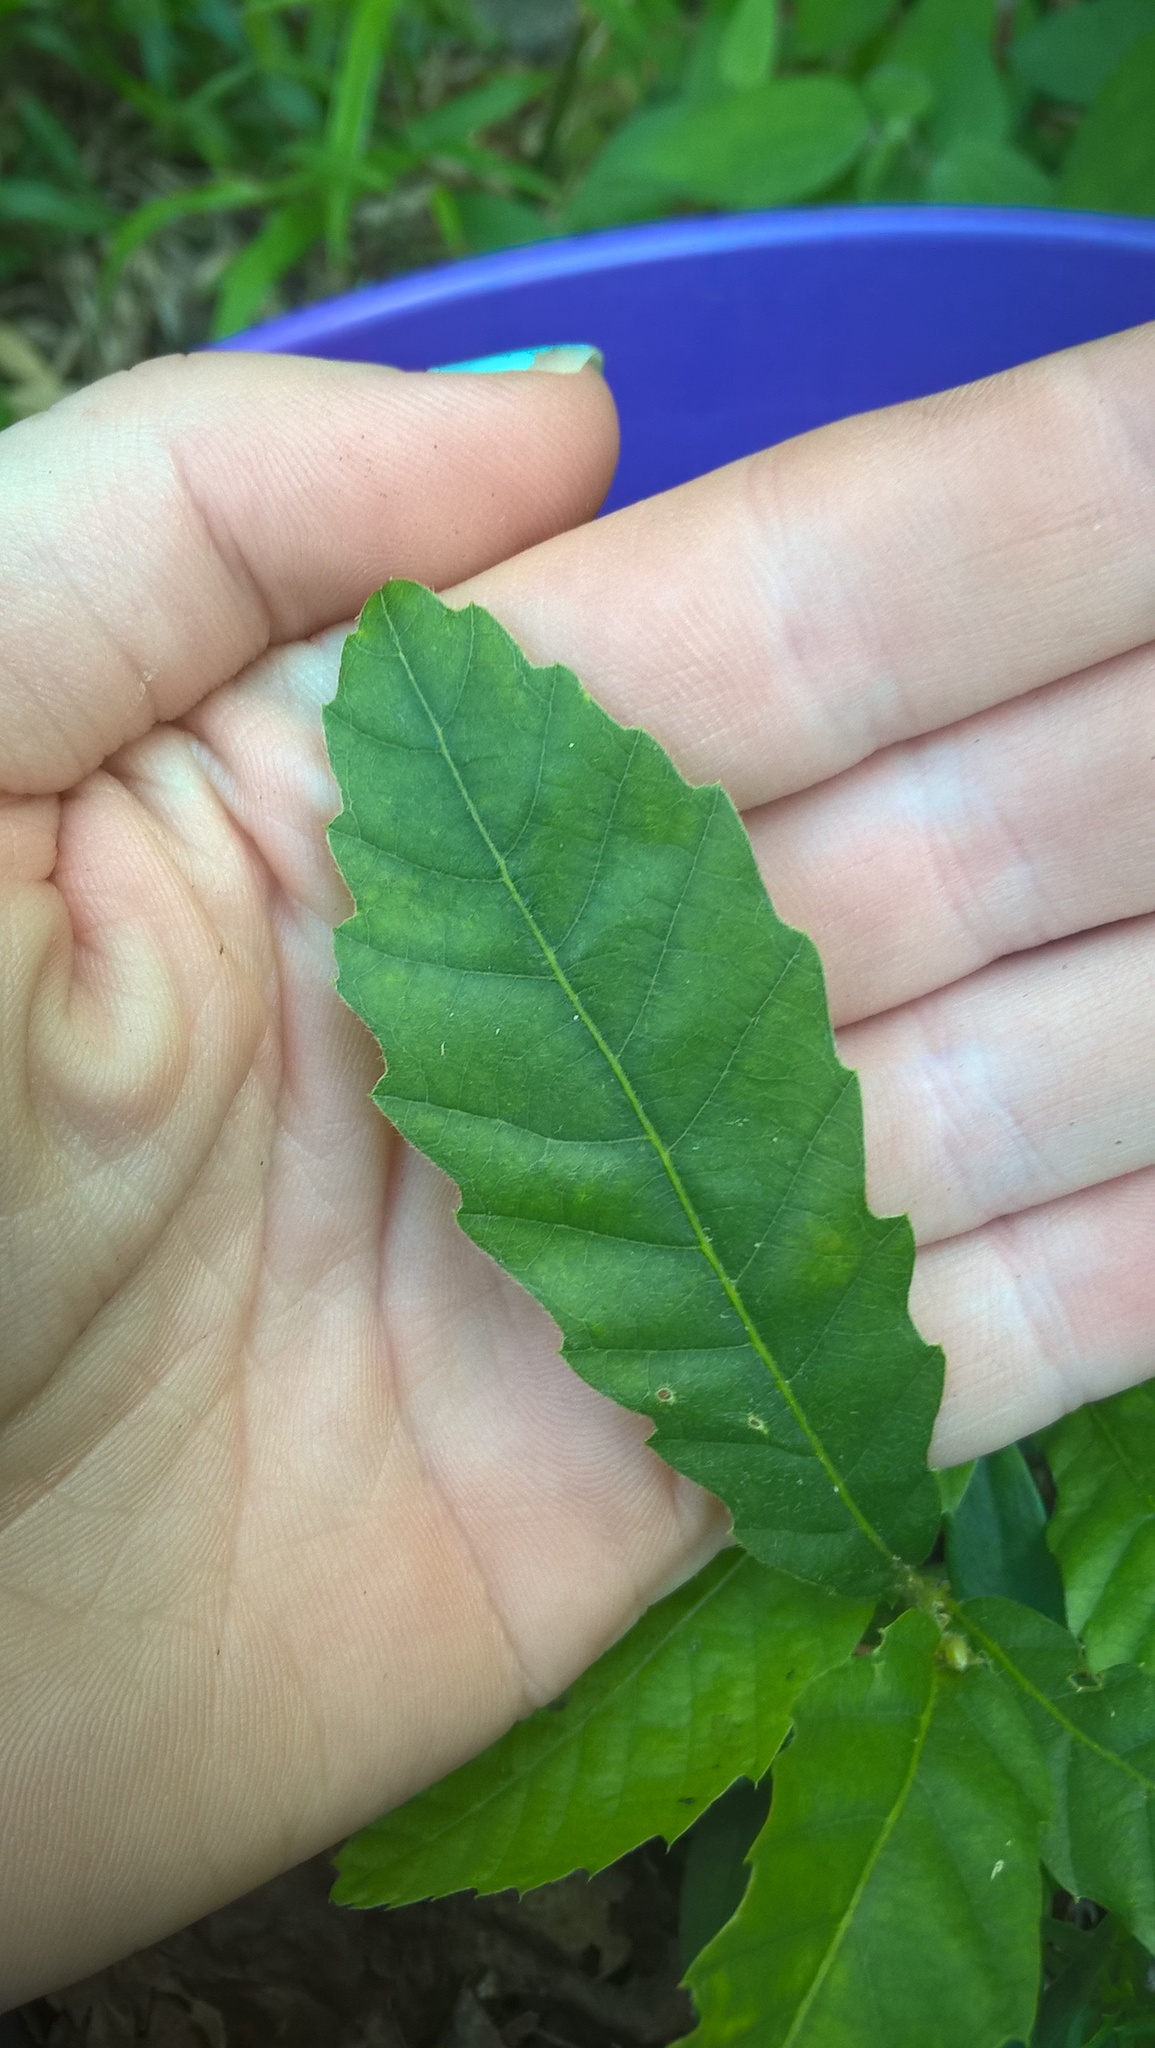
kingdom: Plantae
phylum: Tracheophyta
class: Magnoliopsida
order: Fagales
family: Fagaceae
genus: Castanea
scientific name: Castanea pumila
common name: Chinkapin
